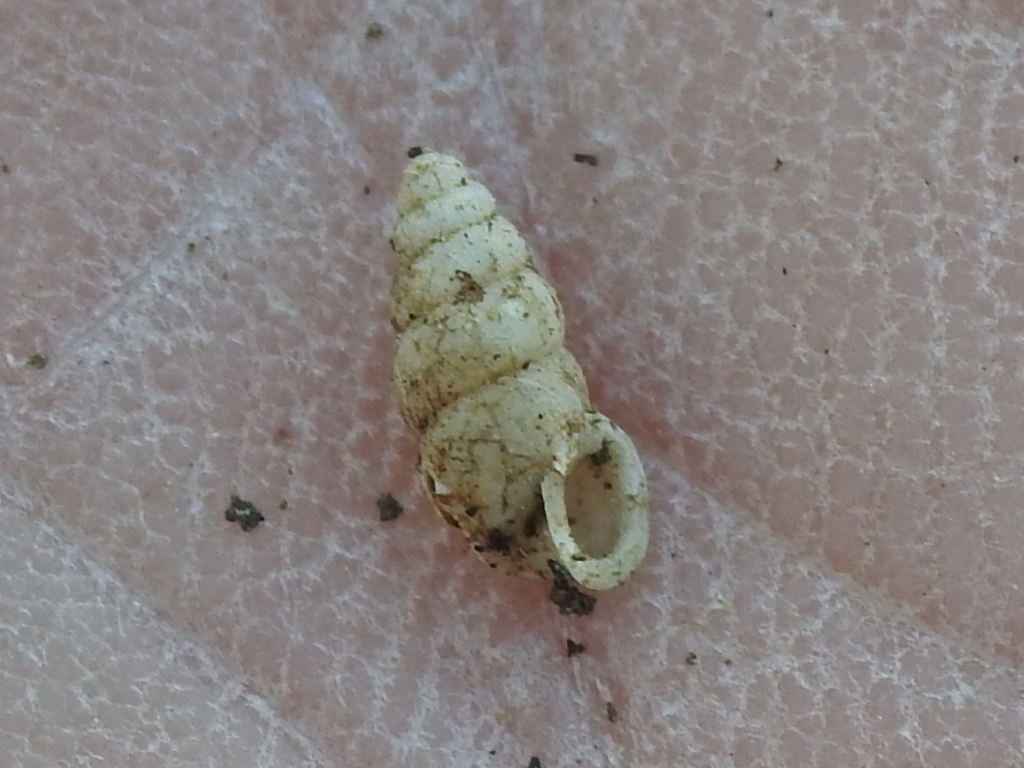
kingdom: Animalia
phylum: Mollusca
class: Gastropoda
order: Stylommatophora
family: Pupillidae
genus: Pupoides
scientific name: Pupoides nitidulus
